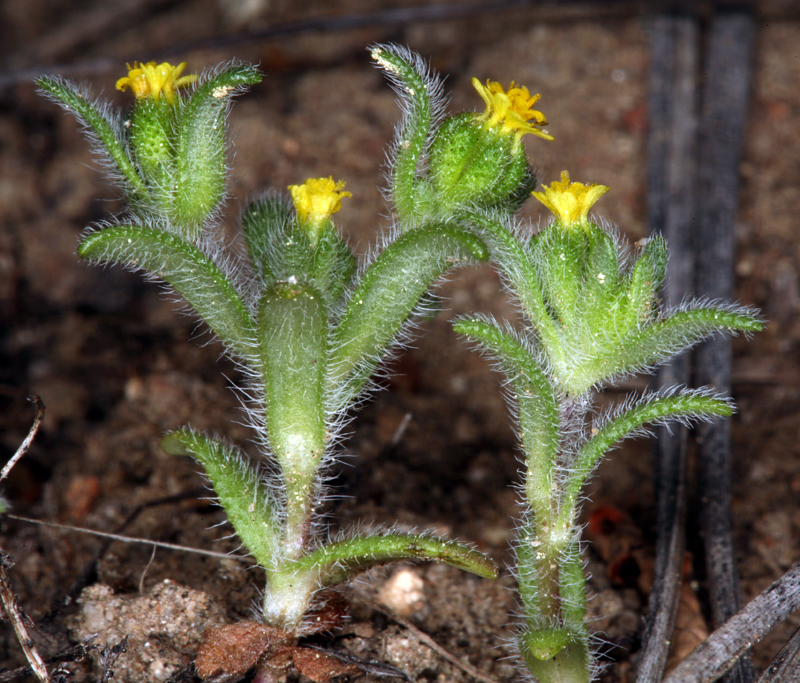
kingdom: Plantae
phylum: Tracheophyta
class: Magnoliopsida
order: Asterales
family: Asteraceae
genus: Hemizonella
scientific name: Hemizonella minima
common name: Opposite-leaved tarweed
